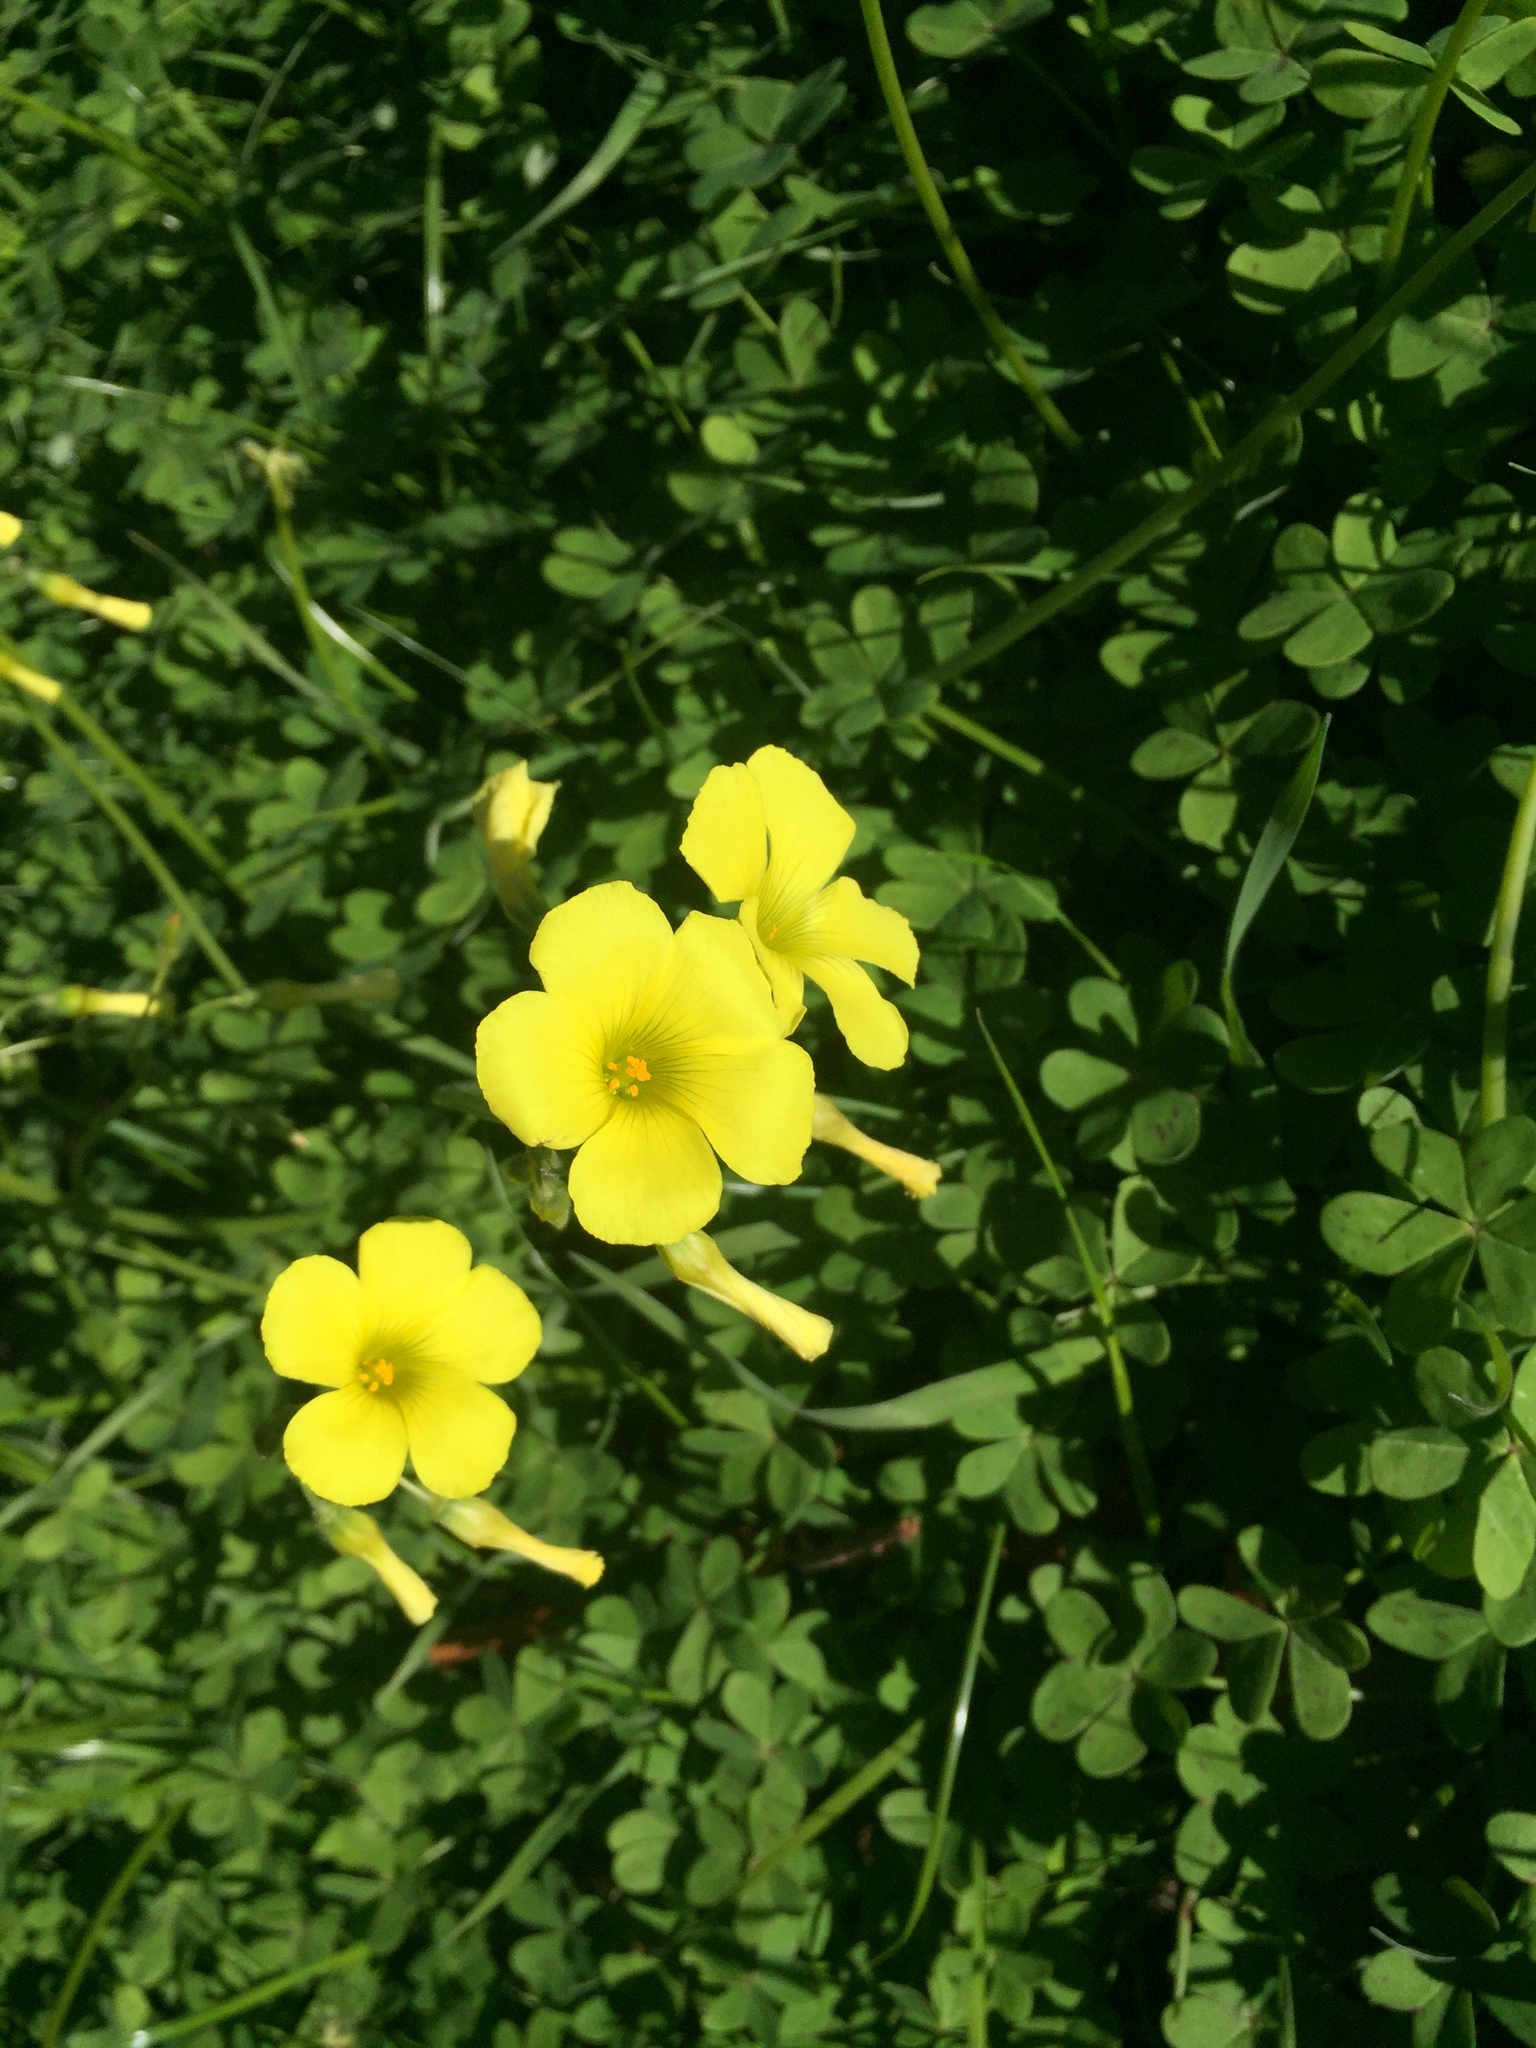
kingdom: Plantae
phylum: Tracheophyta
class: Magnoliopsida
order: Oxalidales
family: Oxalidaceae
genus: Oxalis
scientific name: Oxalis pes-caprae
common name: Bermuda-buttercup
